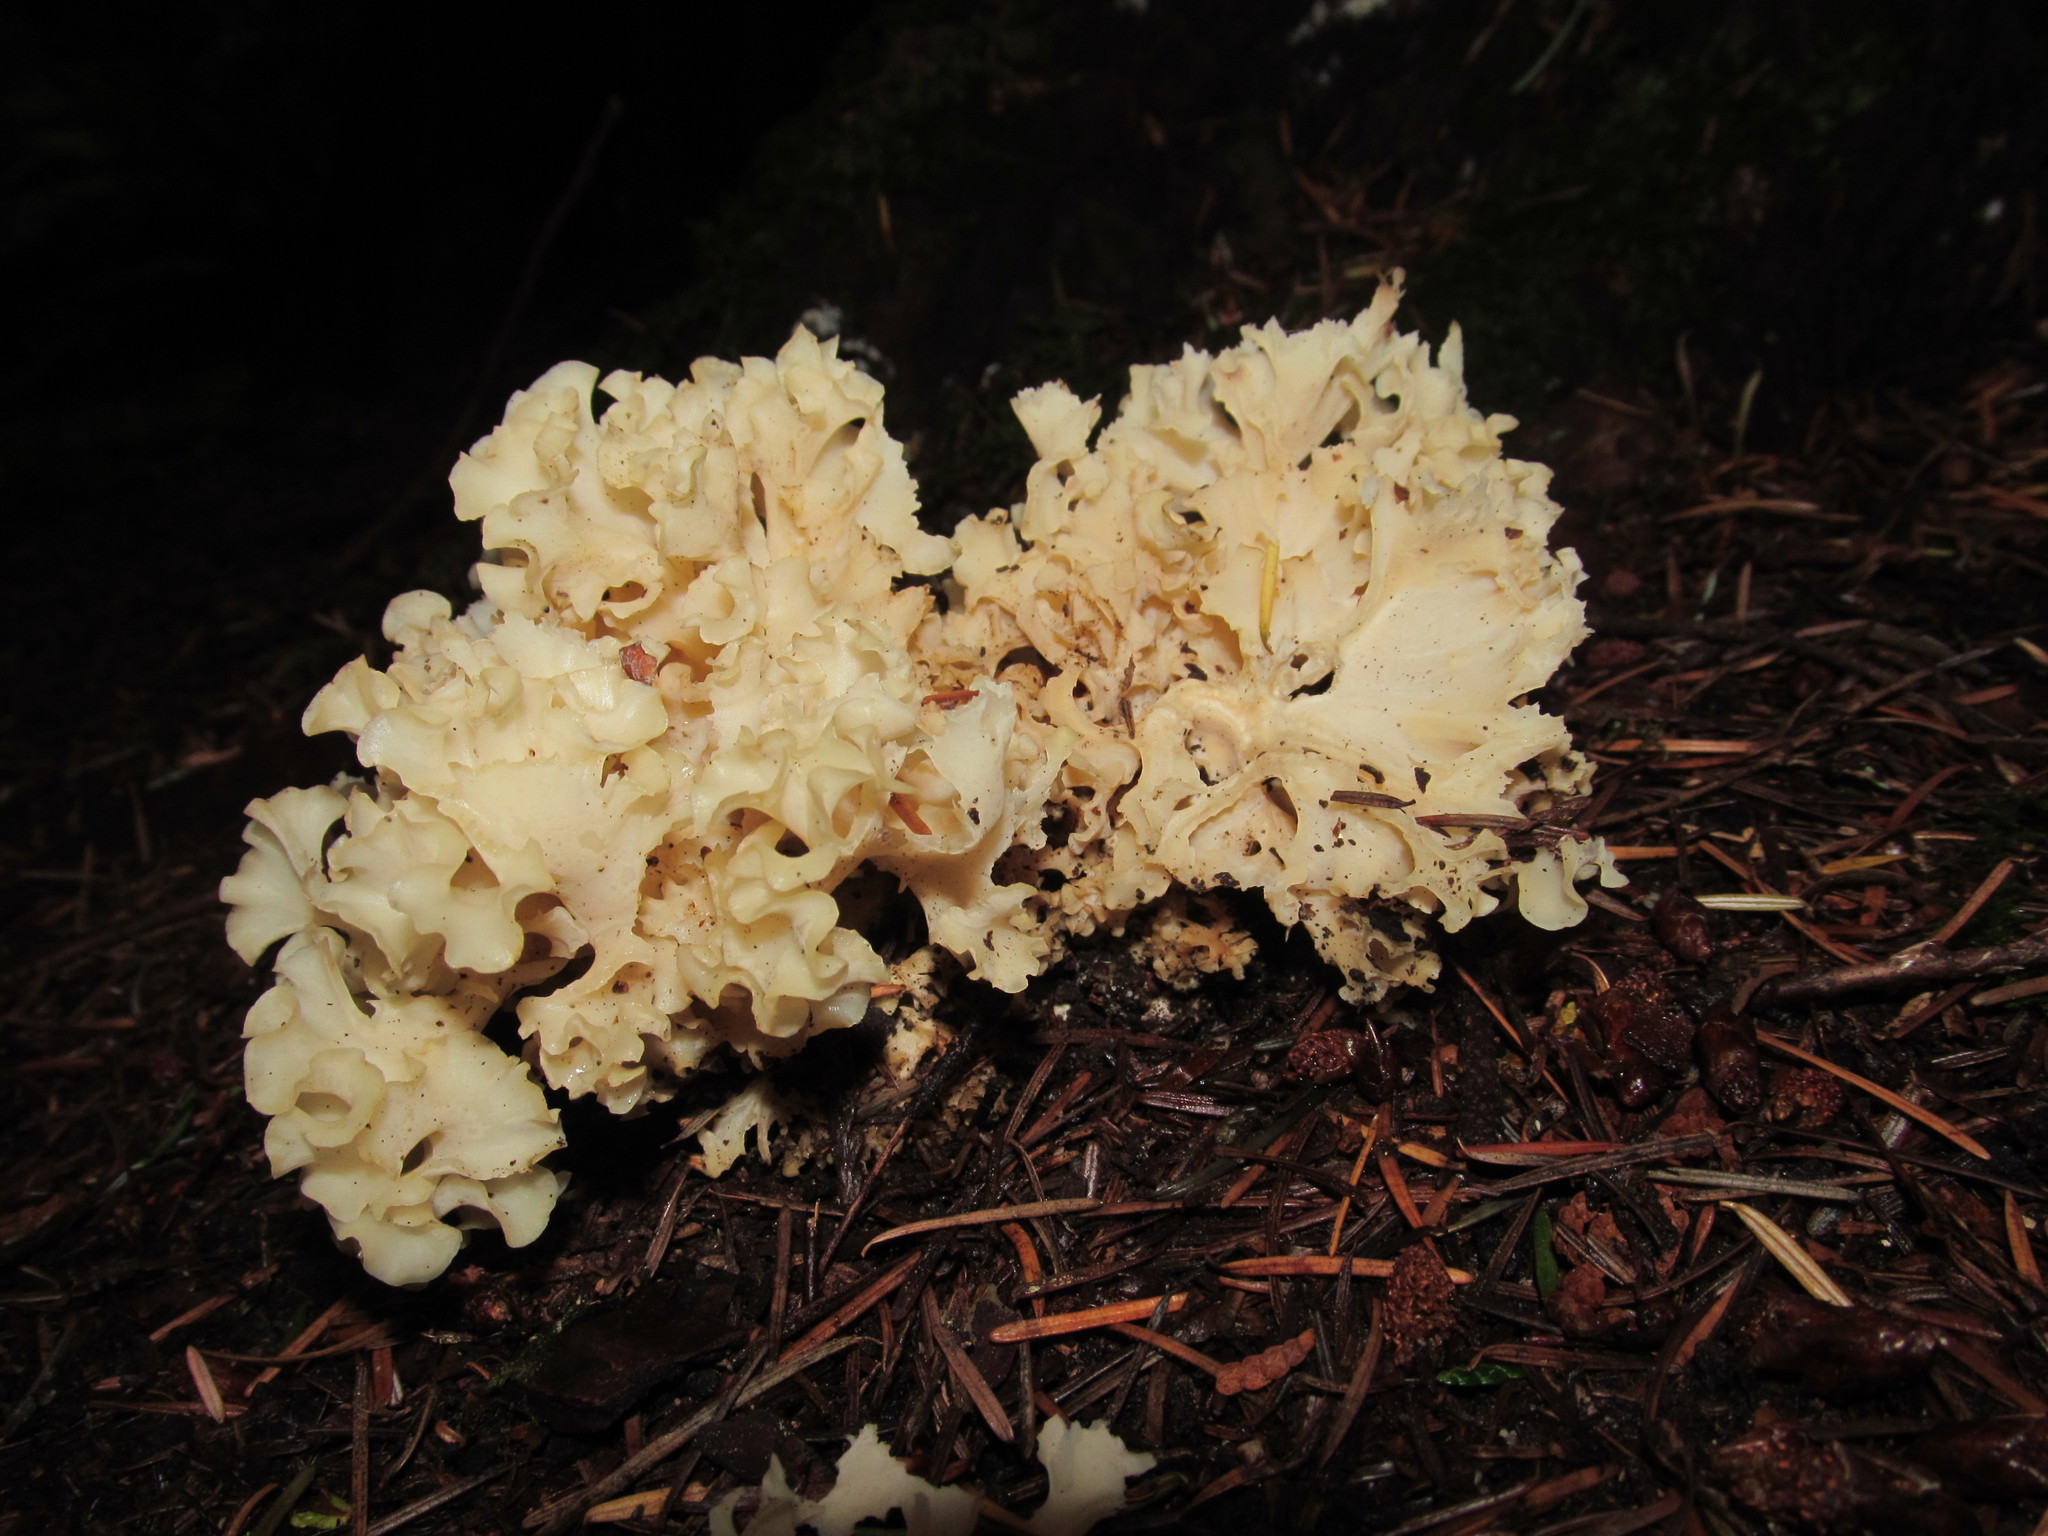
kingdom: Fungi
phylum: Basidiomycota
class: Agaricomycetes
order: Polyporales
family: Sparassidaceae
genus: Sparassis
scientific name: Sparassis radicata
